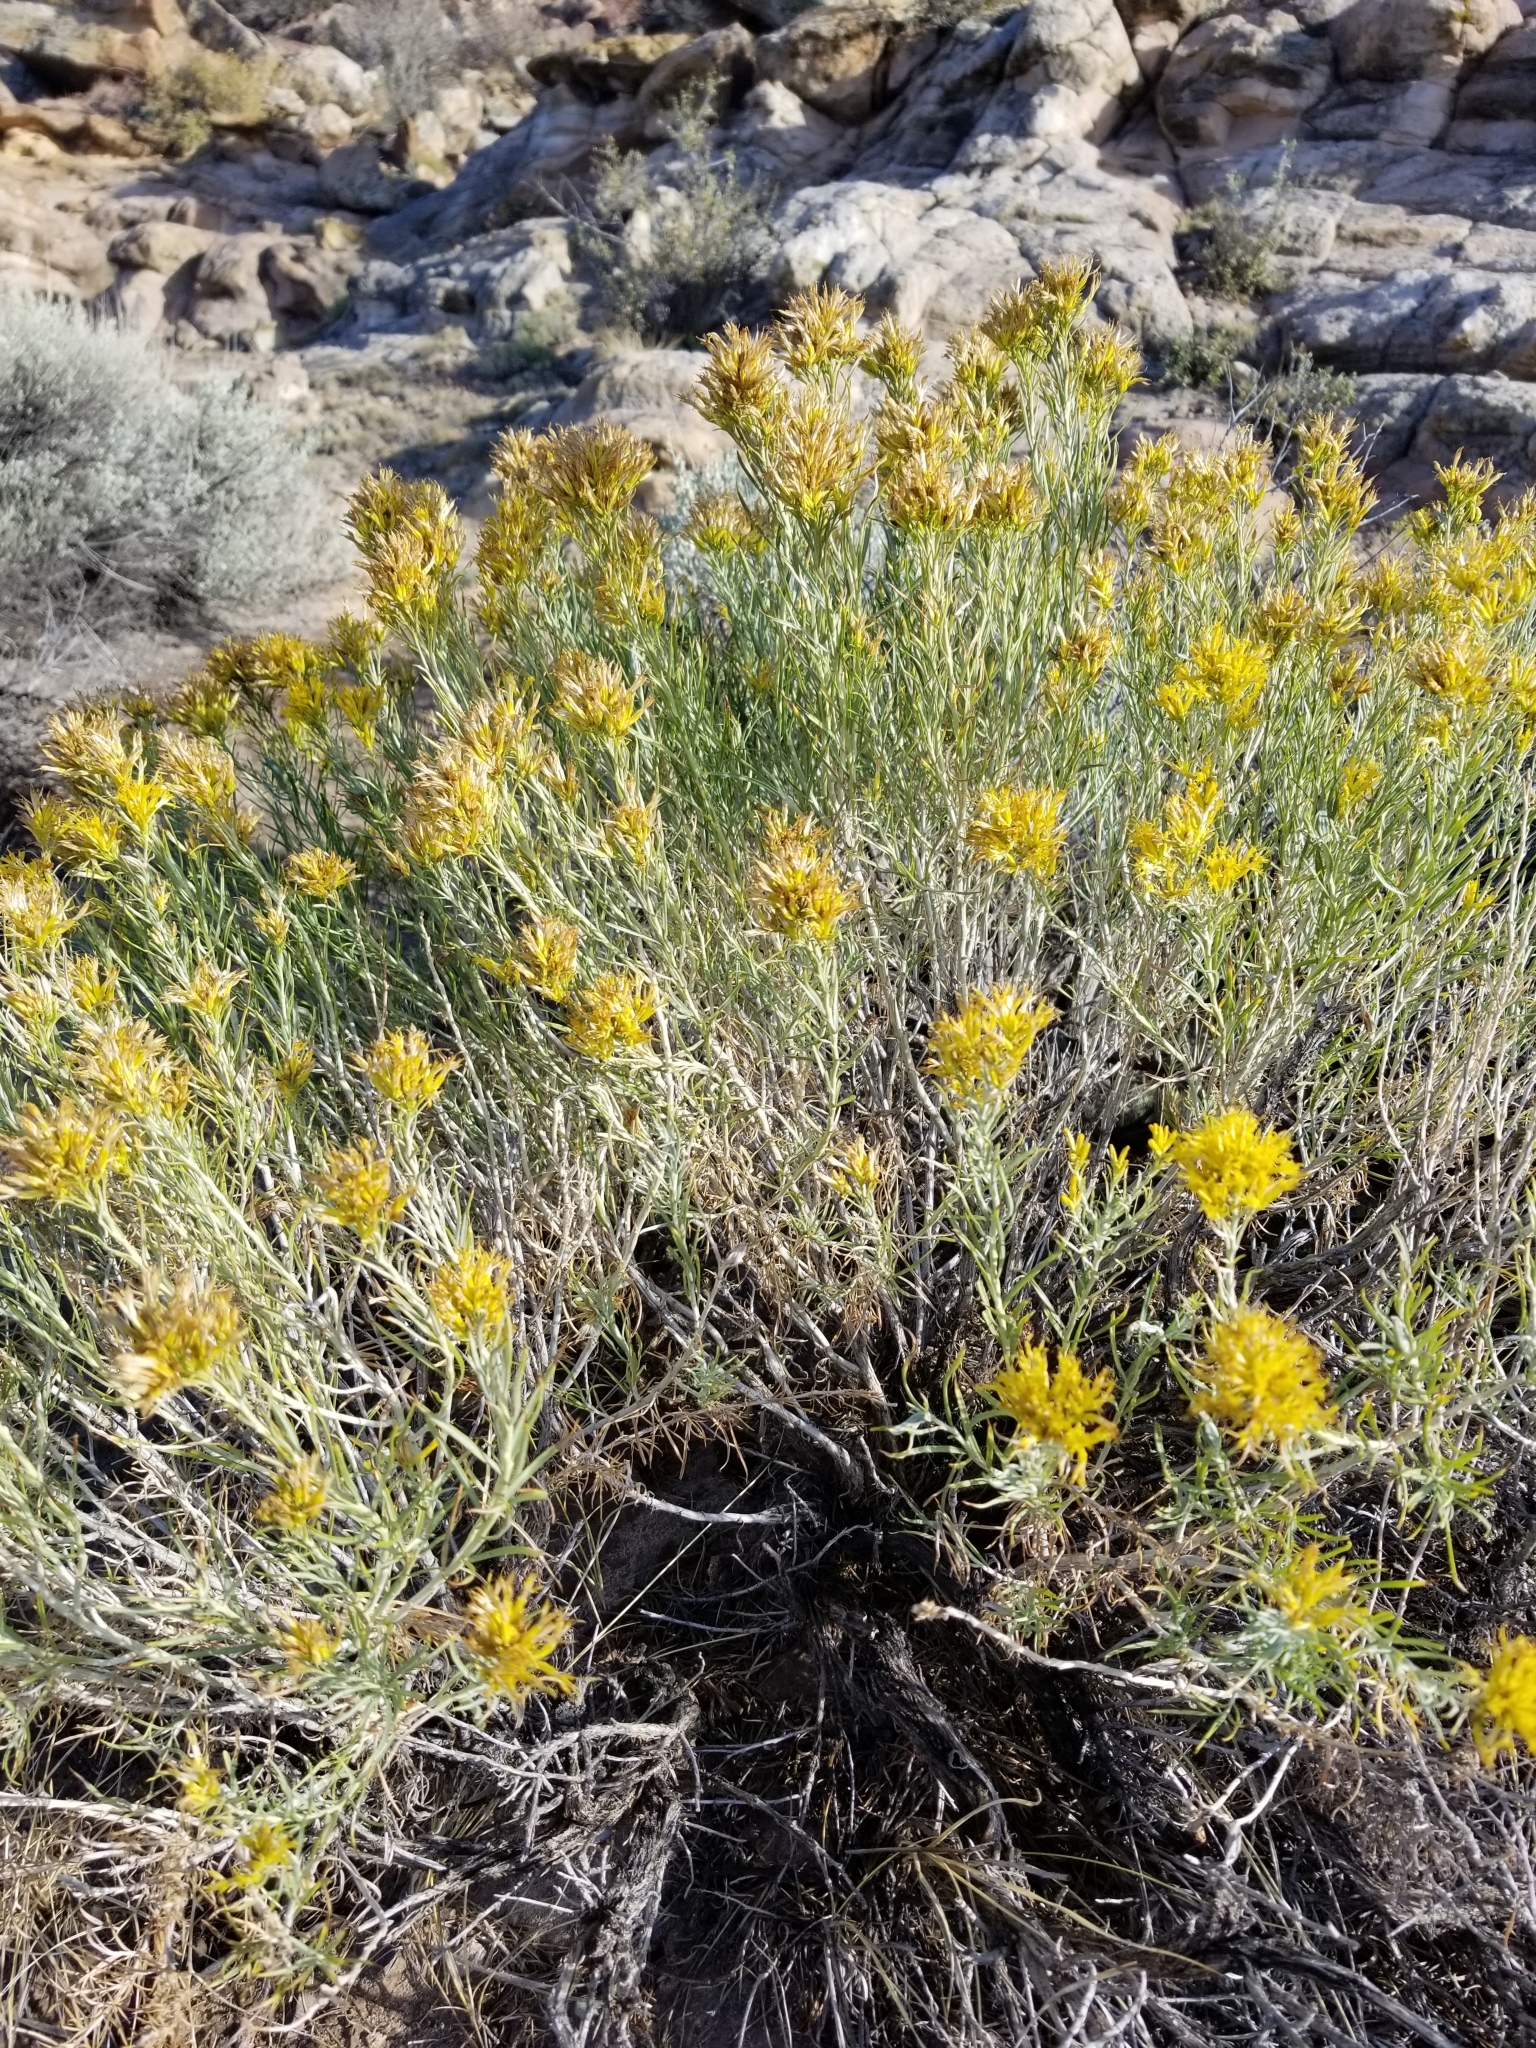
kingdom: Plantae
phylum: Tracheophyta
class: Magnoliopsida
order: Asterales
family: Asteraceae
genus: Ericameria
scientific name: Ericameria nauseosa
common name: Rubber rabbitbrush
